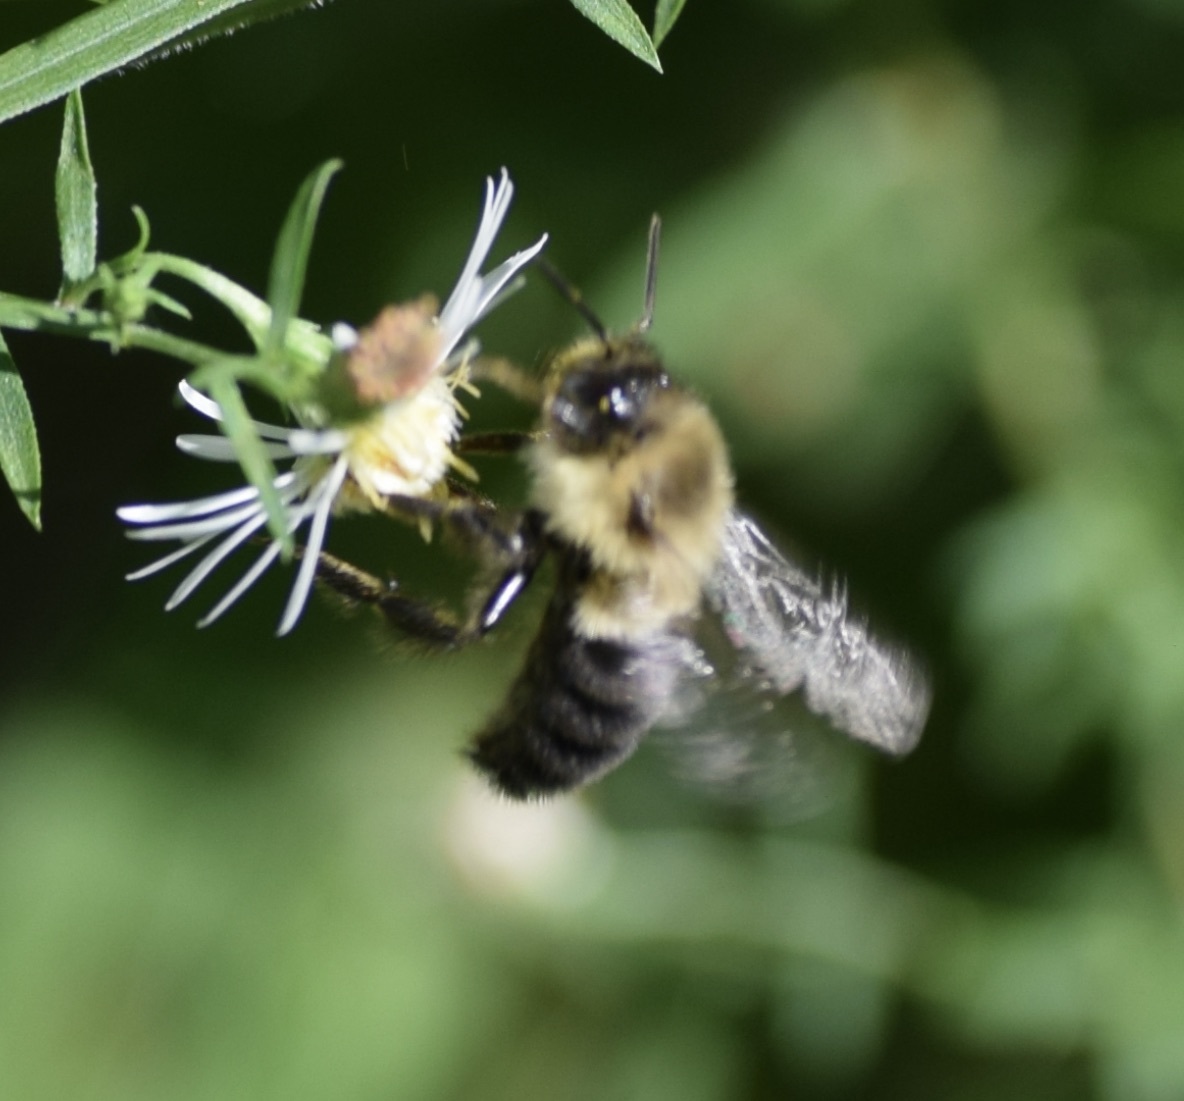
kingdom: Animalia
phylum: Arthropoda
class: Insecta
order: Hymenoptera
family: Apidae
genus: Bombus
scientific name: Bombus impatiens
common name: Common eastern bumble bee
